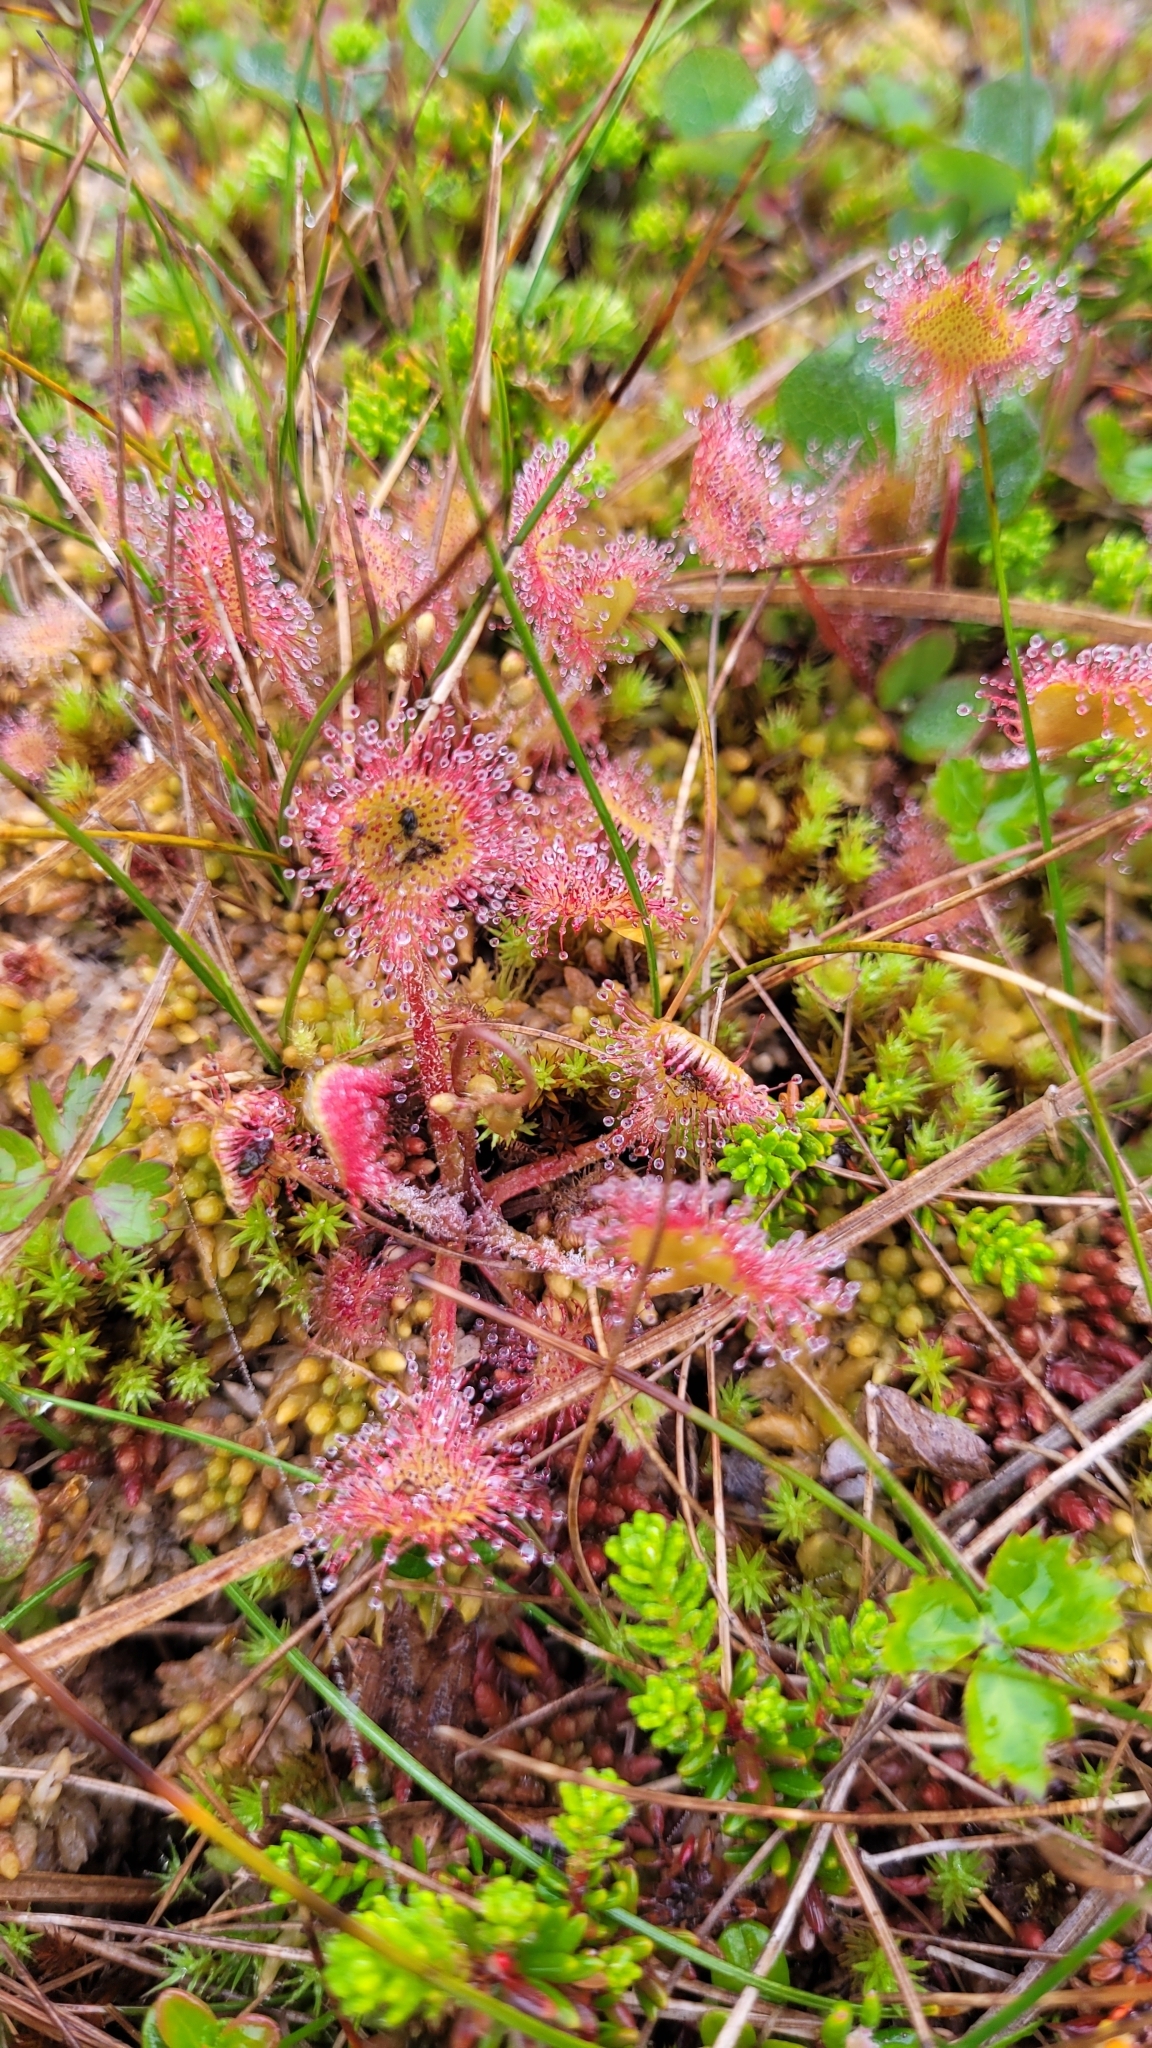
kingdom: Plantae
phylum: Tracheophyta
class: Magnoliopsida
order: Caryophyllales
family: Droseraceae
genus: Drosera
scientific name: Drosera rotundifolia
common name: Round-leaved sundew
